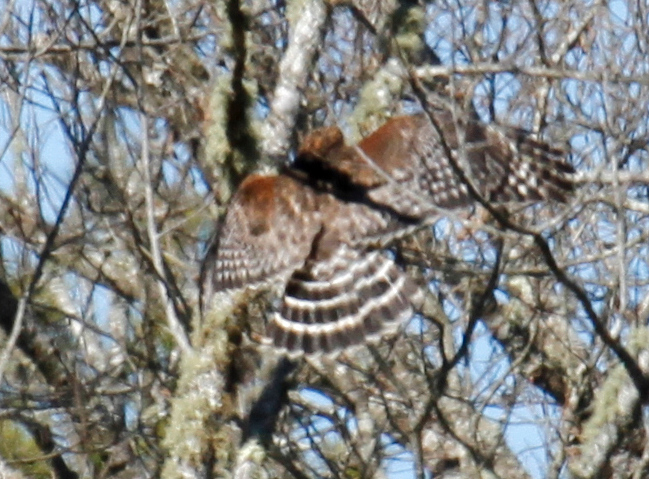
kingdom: Animalia
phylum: Chordata
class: Aves
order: Accipitriformes
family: Accipitridae
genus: Buteo
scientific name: Buteo lineatus
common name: Red-shouldered hawk
